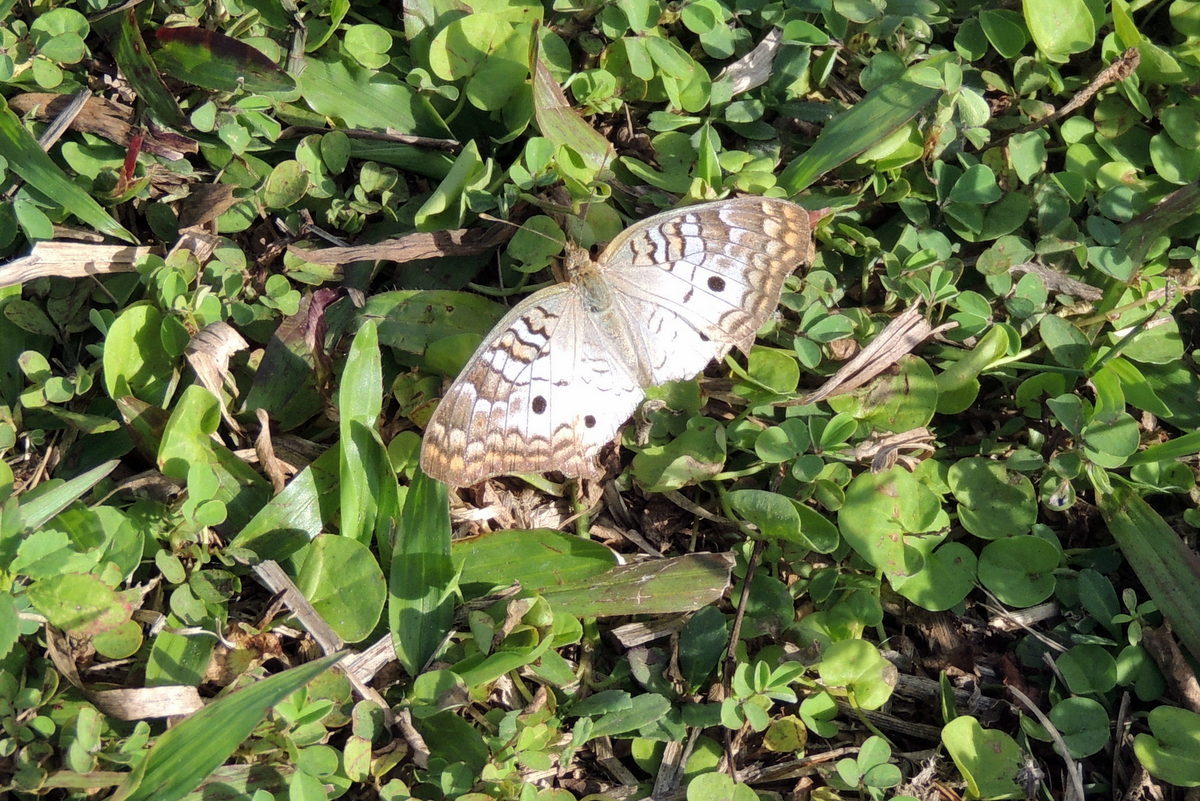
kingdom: Animalia
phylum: Arthropoda
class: Insecta
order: Lepidoptera
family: Nymphalidae
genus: Anartia
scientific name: Anartia jatrophae
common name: White peacock
